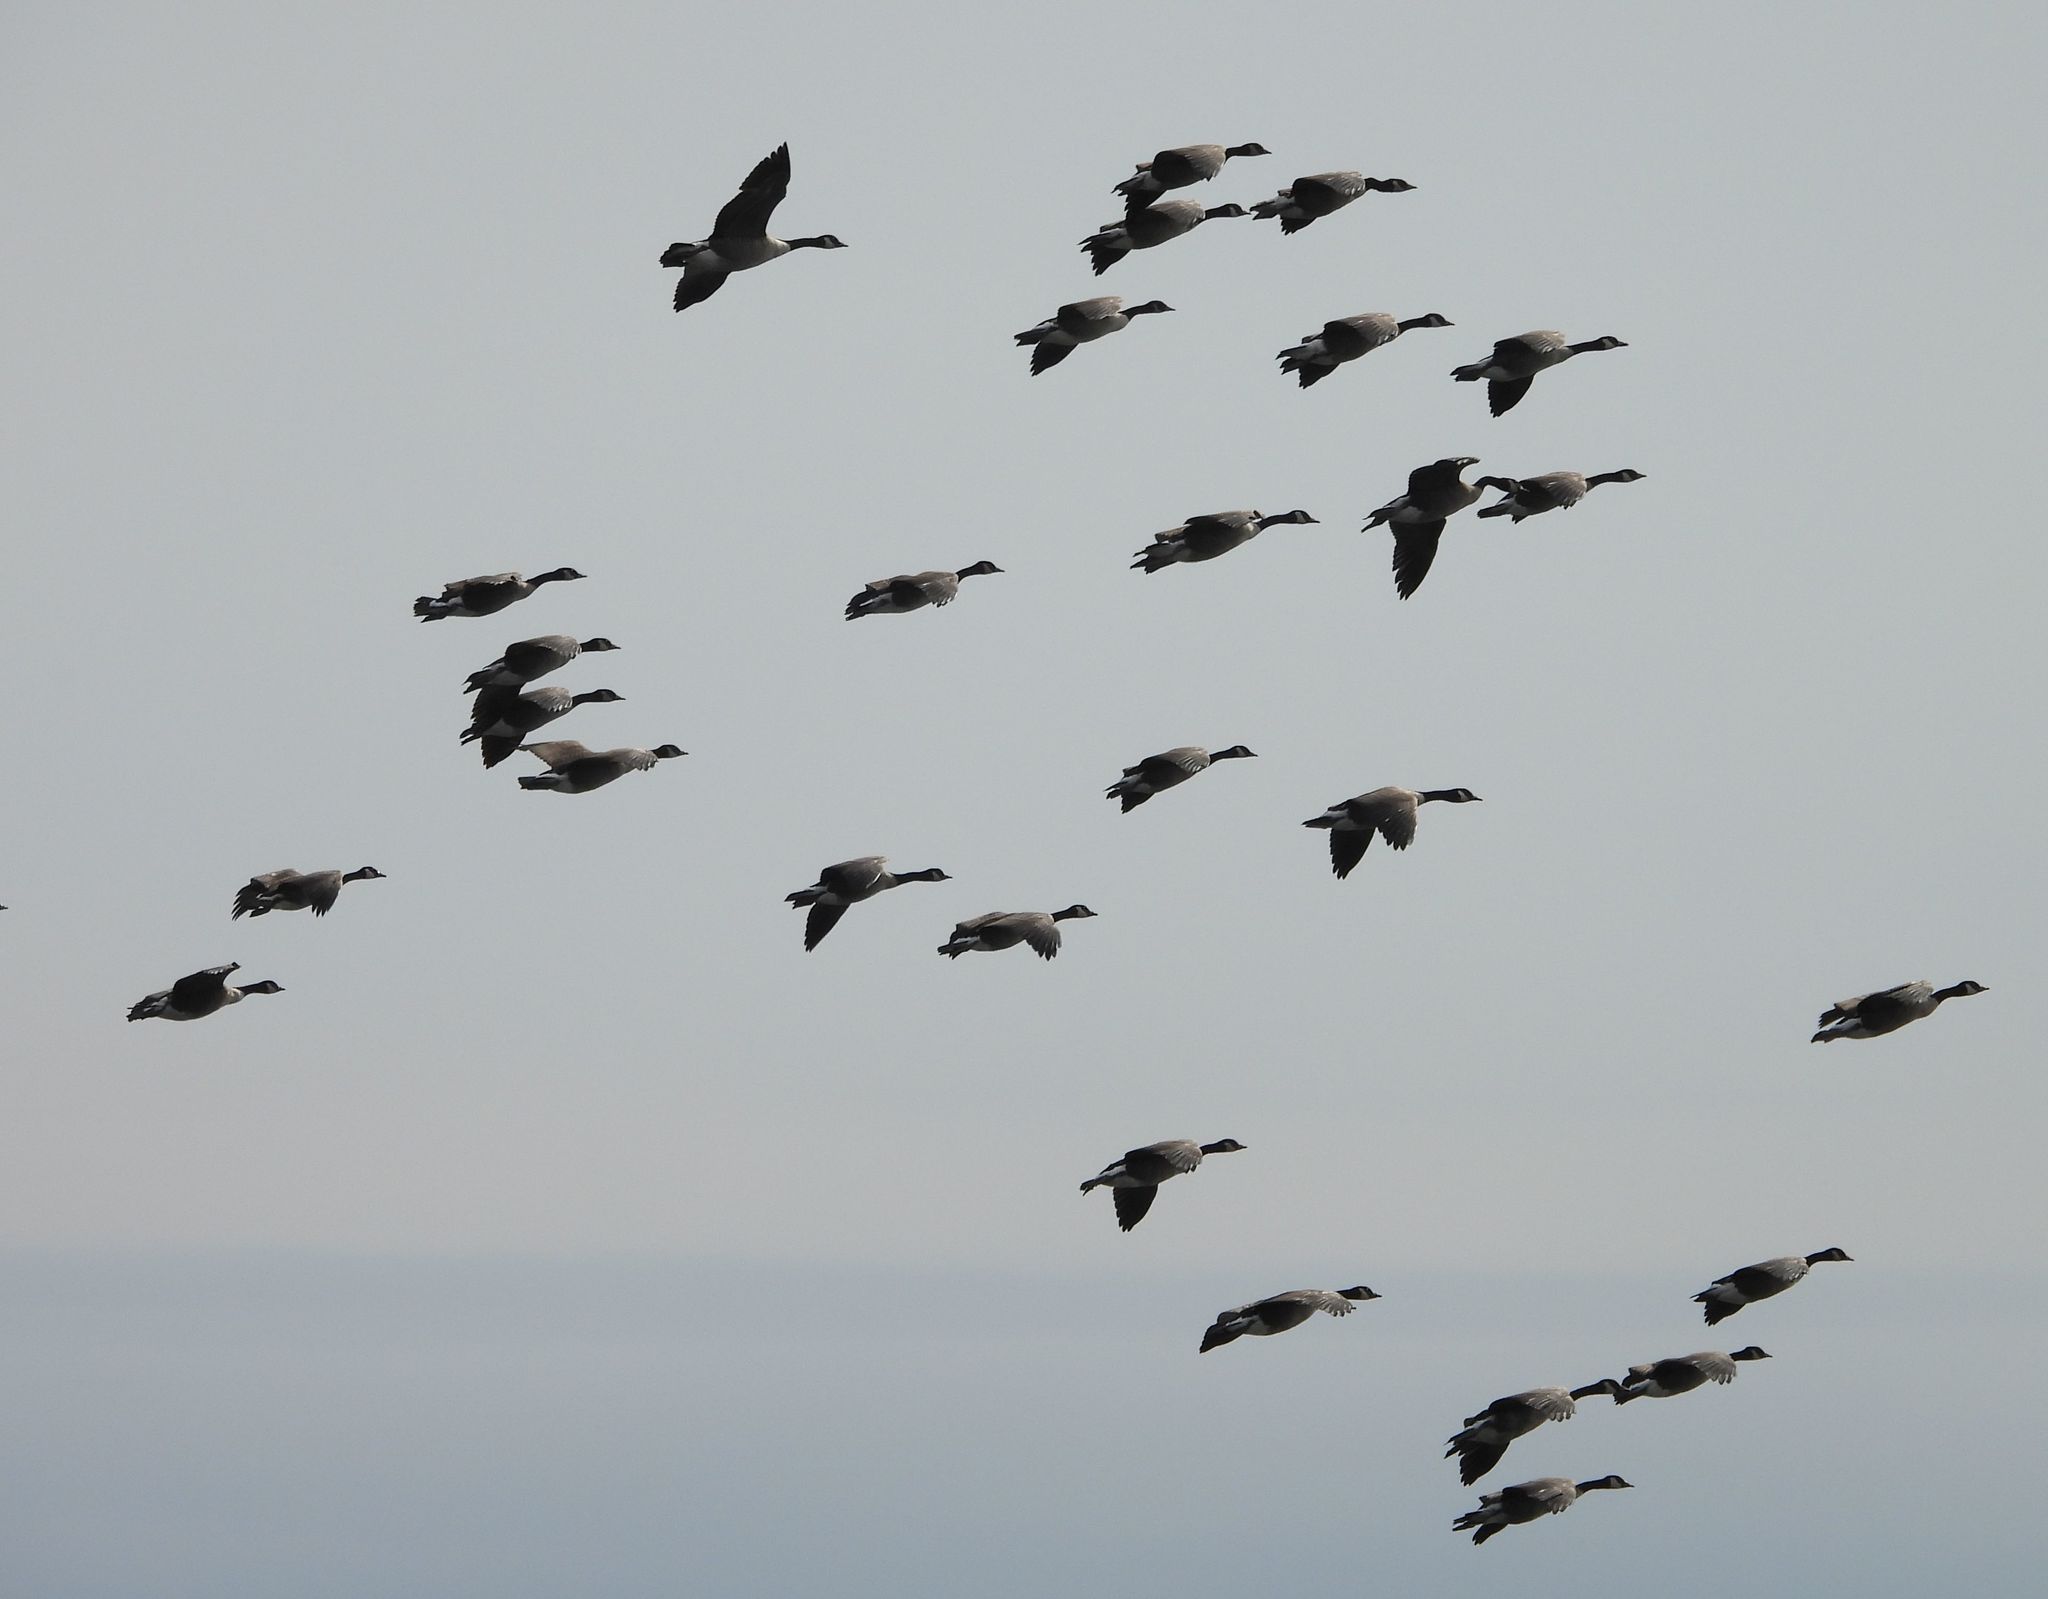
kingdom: Animalia
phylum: Chordata
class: Aves
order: Anseriformes
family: Anatidae
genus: Branta
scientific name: Branta canadensis
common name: Canada goose
